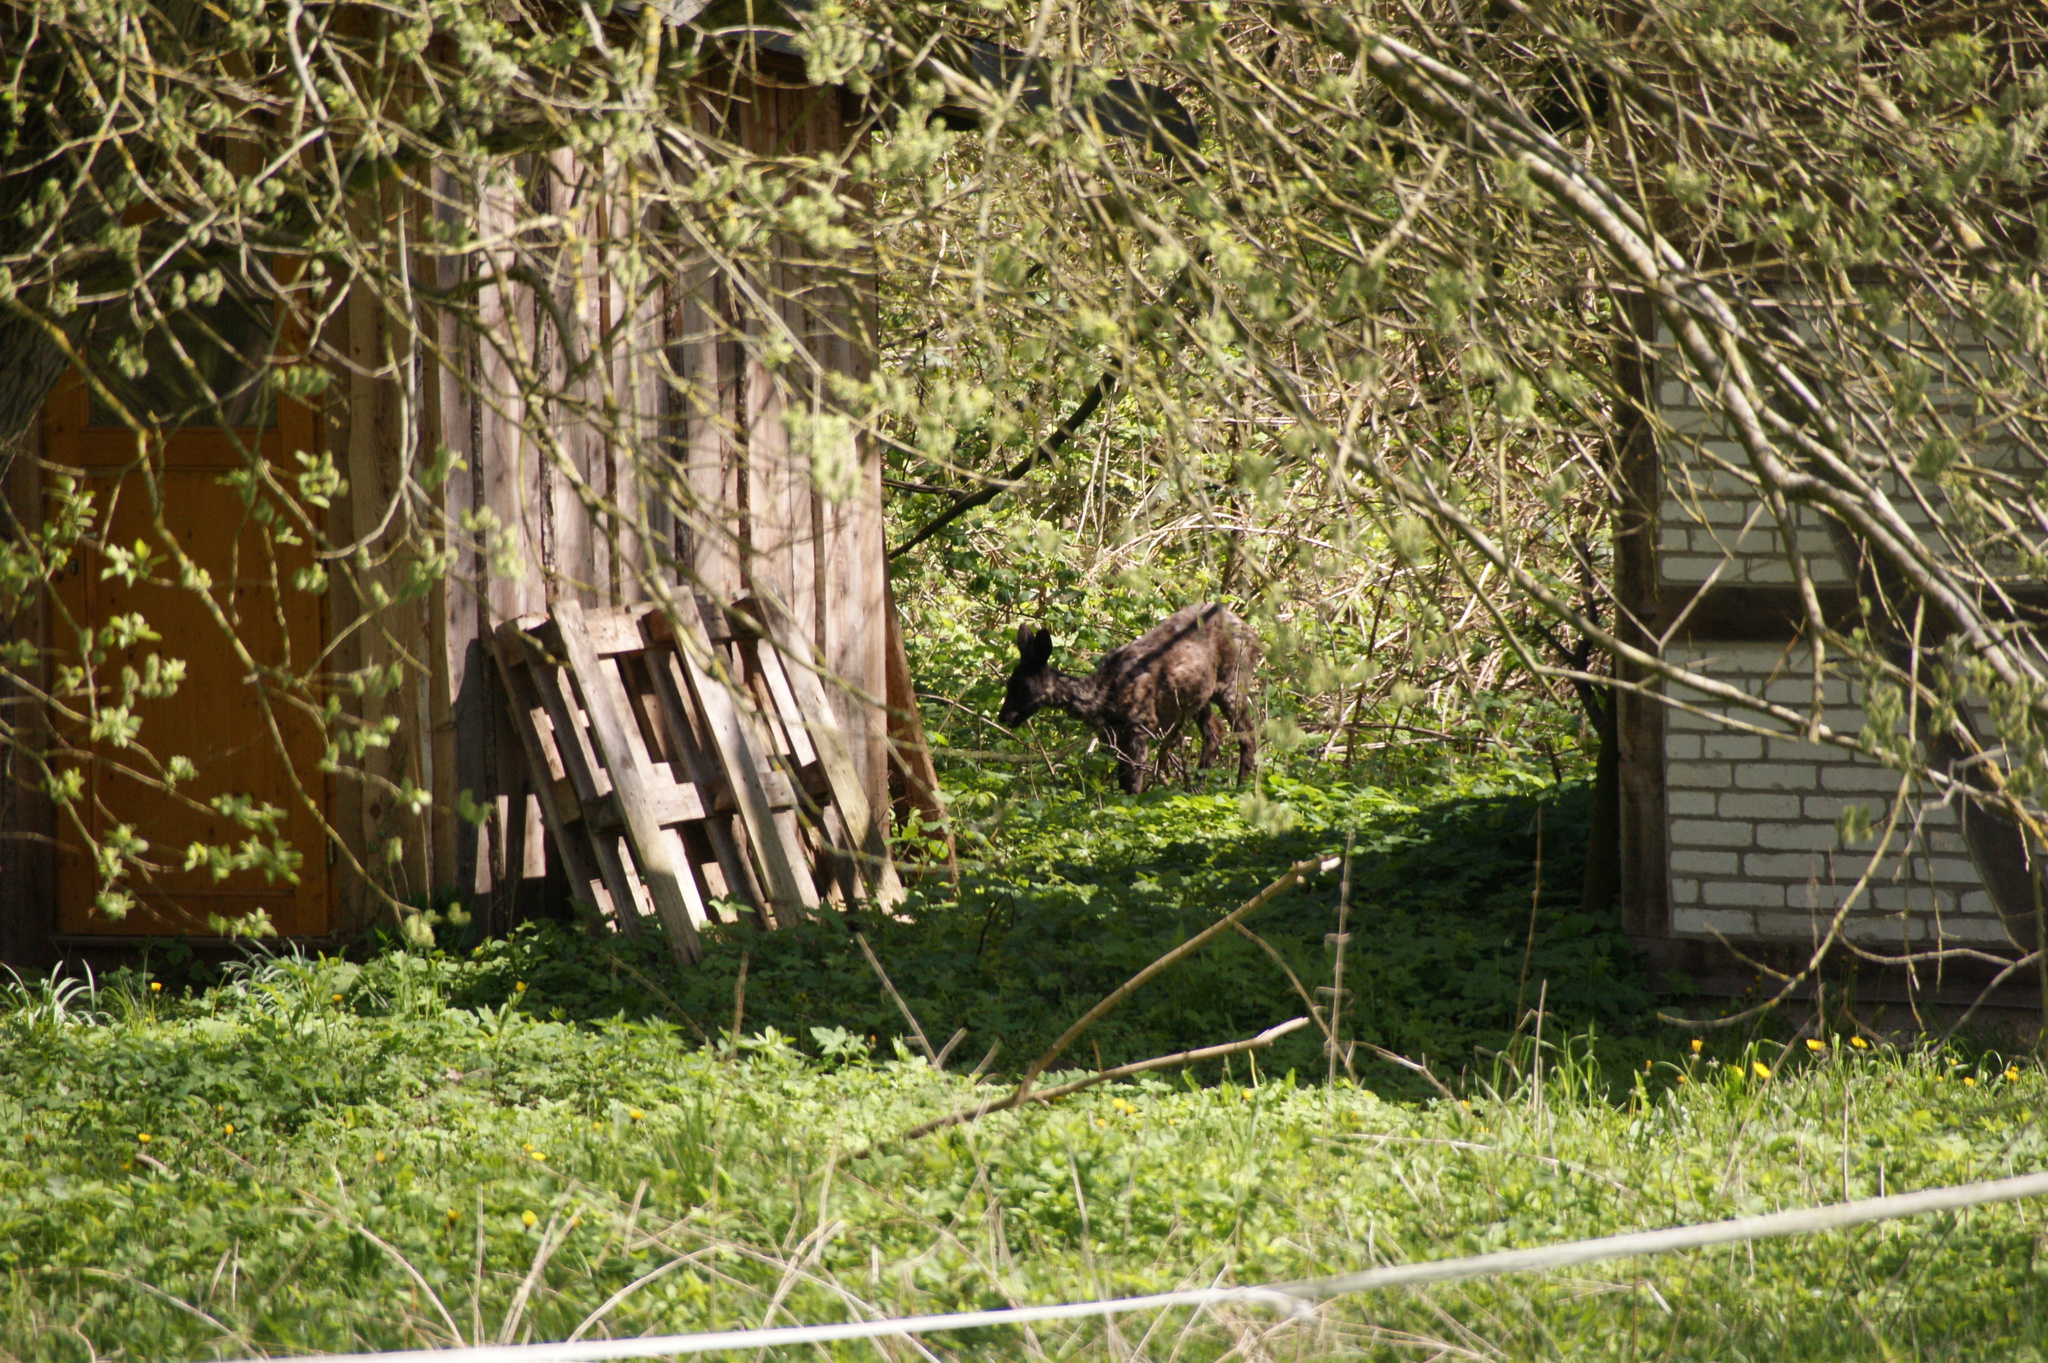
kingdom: Animalia
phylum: Chordata
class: Mammalia
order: Artiodactyla
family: Cervidae
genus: Capreolus
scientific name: Capreolus capreolus
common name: Western roe deer
